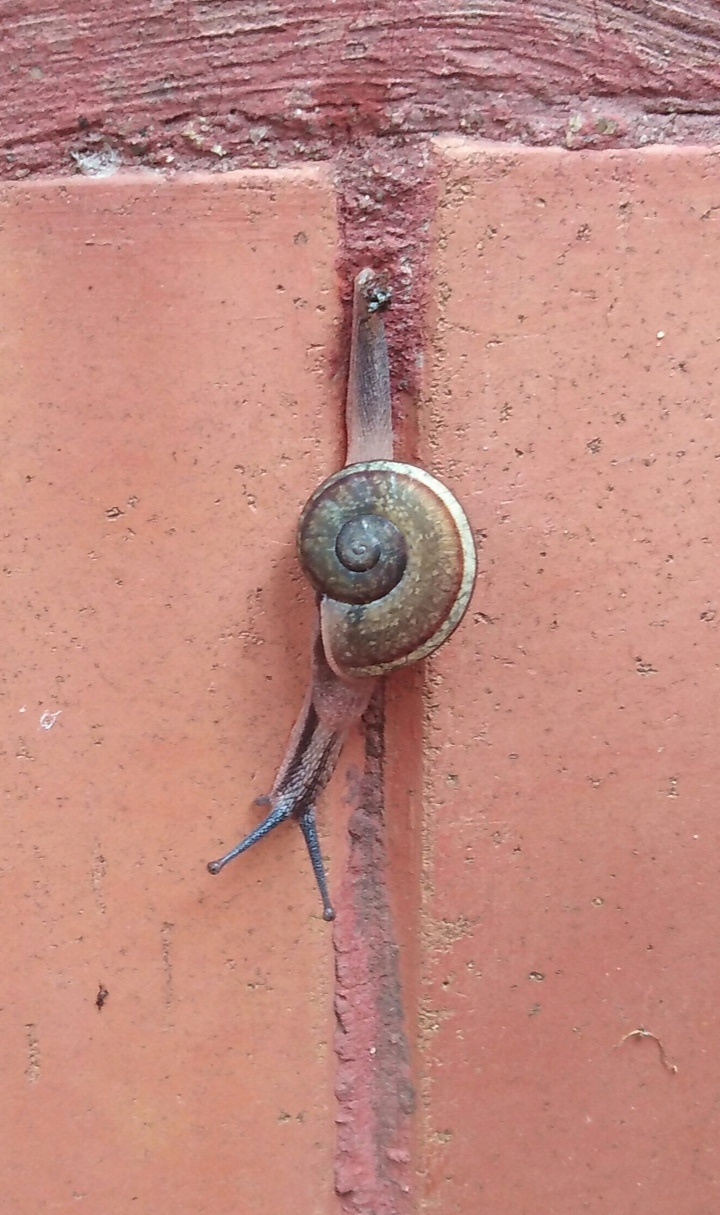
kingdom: Animalia
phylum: Mollusca
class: Gastropoda
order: Stylommatophora
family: Ariophantidae
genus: Ariophanta
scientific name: Ariophanta exilis
